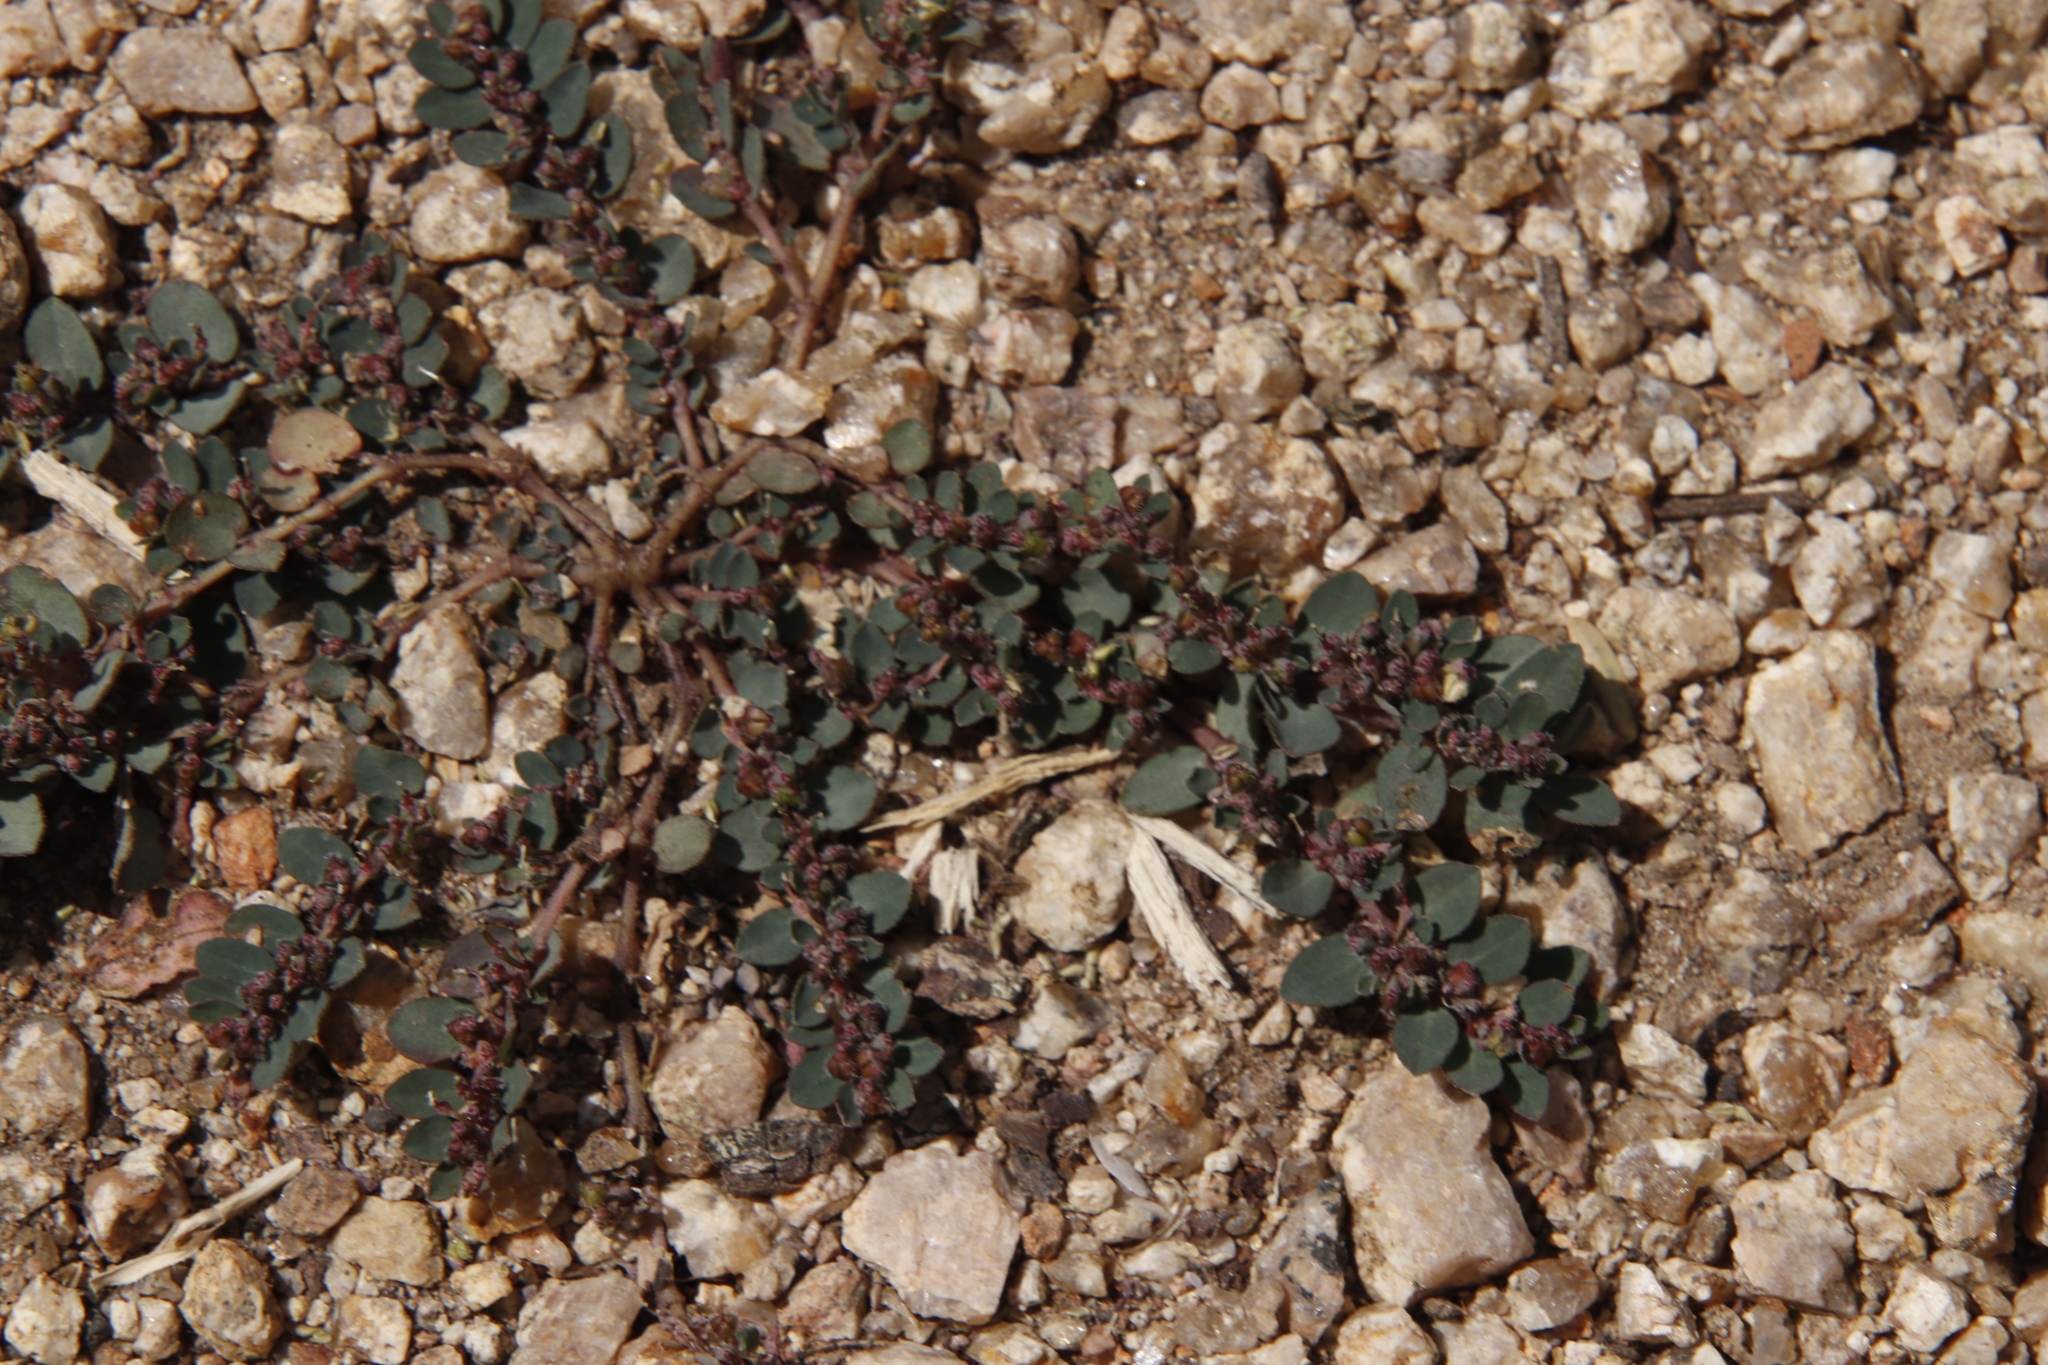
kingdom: Plantae
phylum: Tracheophyta
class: Magnoliopsida
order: Malpighiales
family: Euphorbiaceae
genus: Euphorbia
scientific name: Euphorbia prostrata
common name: Prostrate sandmat
